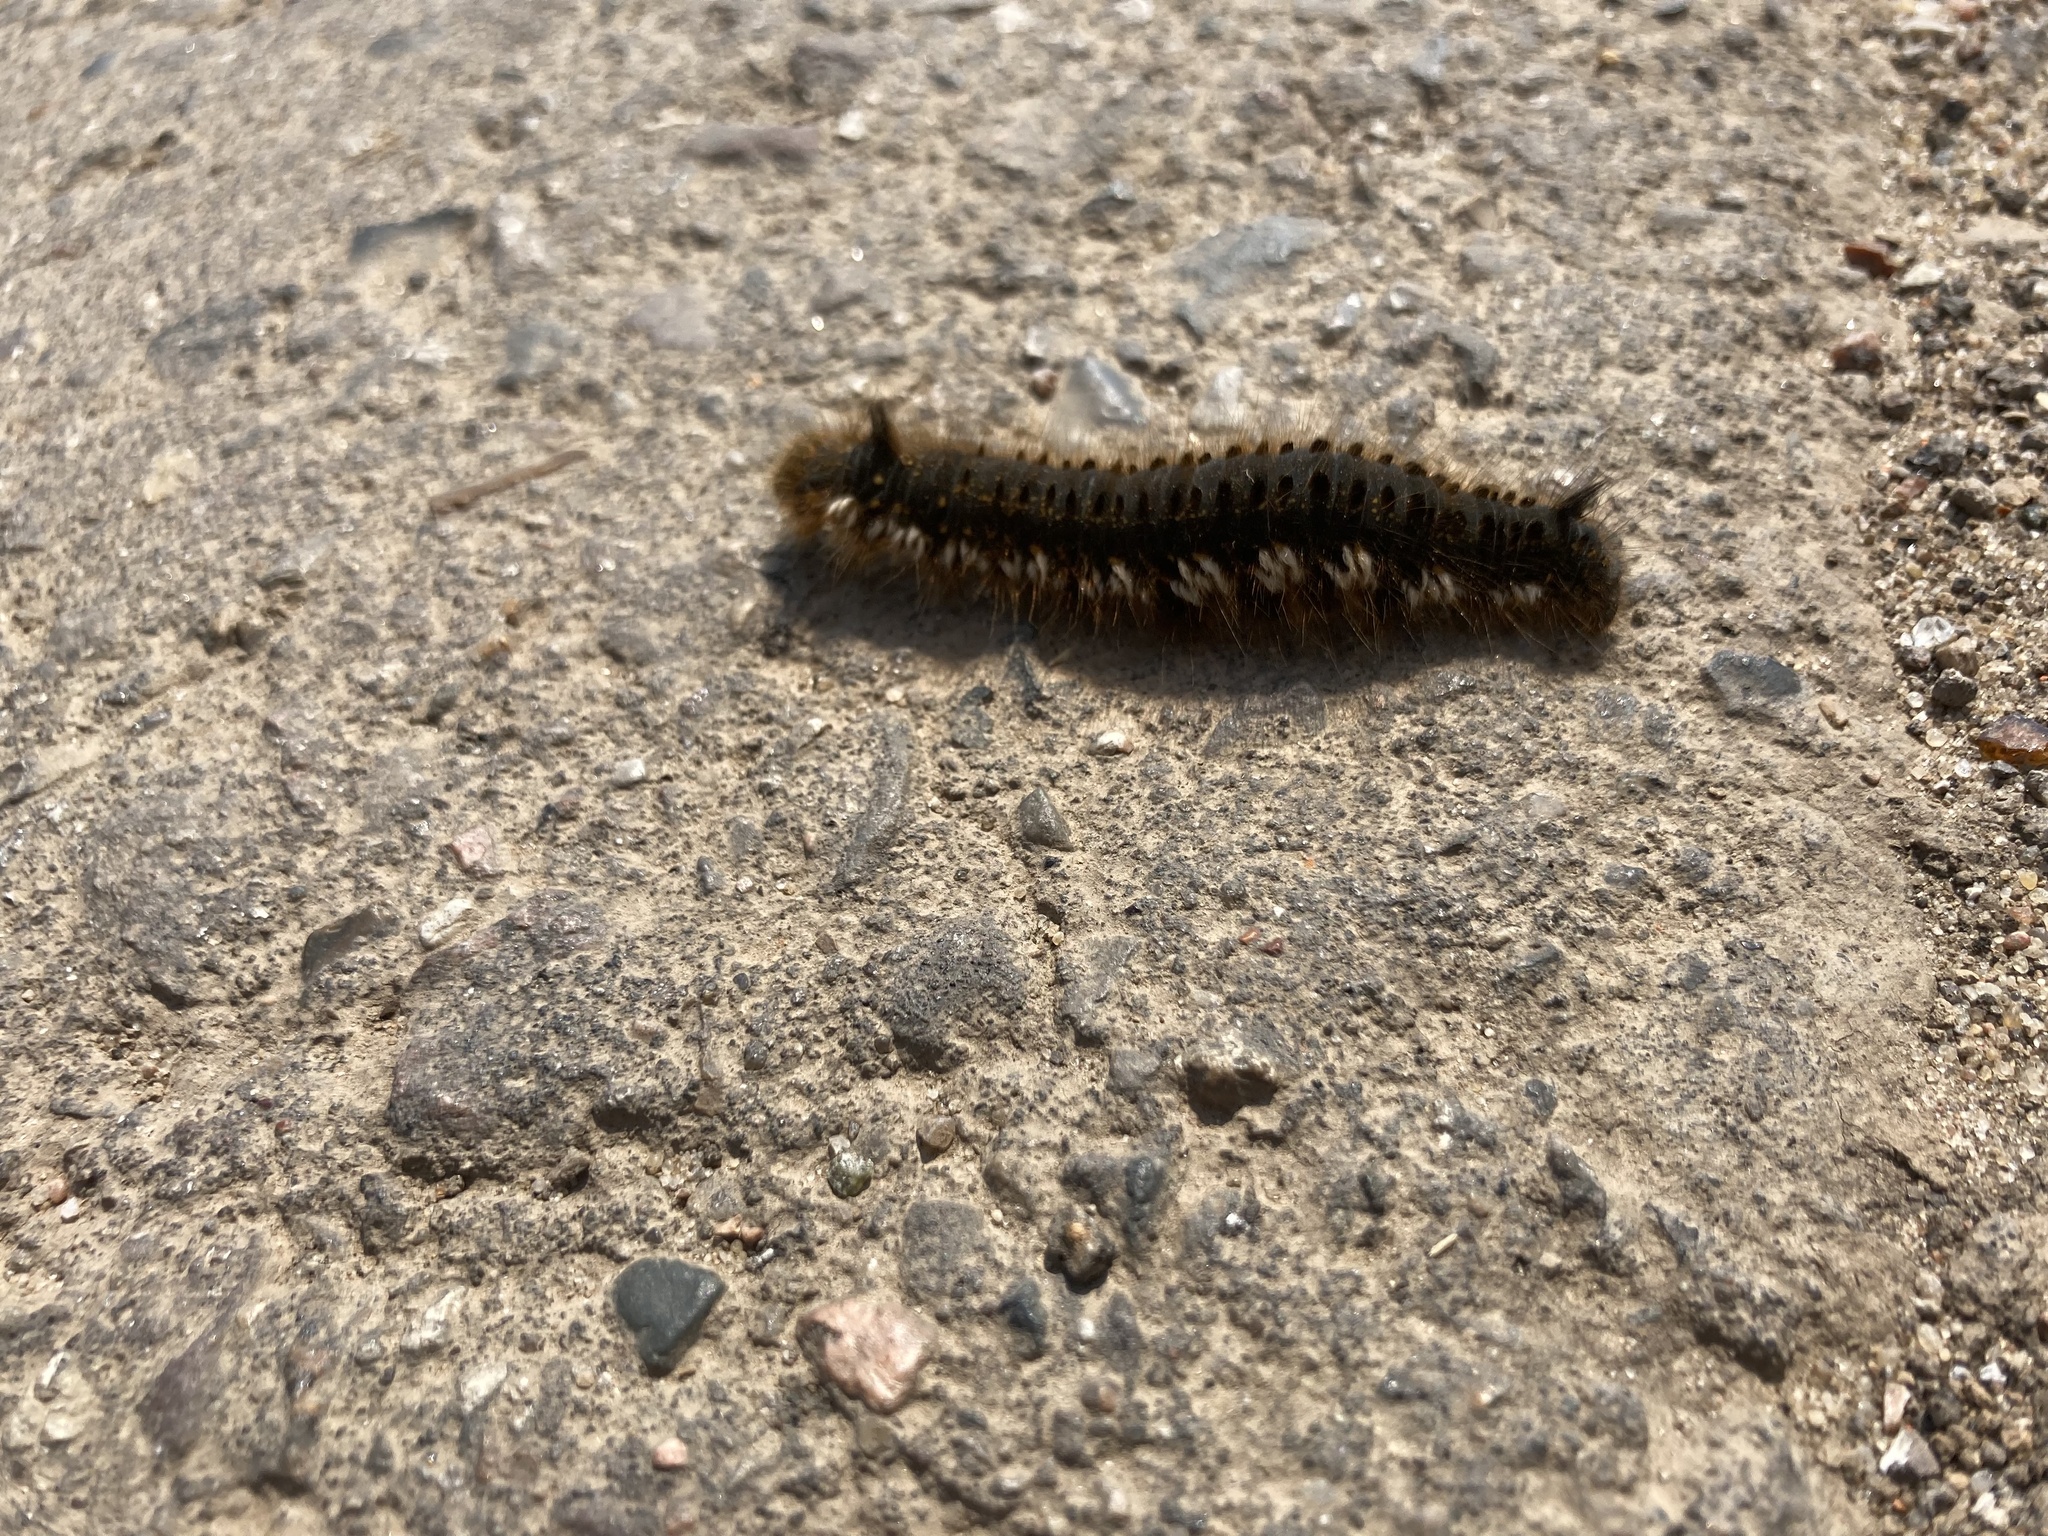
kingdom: Animalia
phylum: Arthropoda
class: Insecta
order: Lepidoptera
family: Lasiocampidae
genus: Euthrix
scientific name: Euthrix potatoria
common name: Drinker
